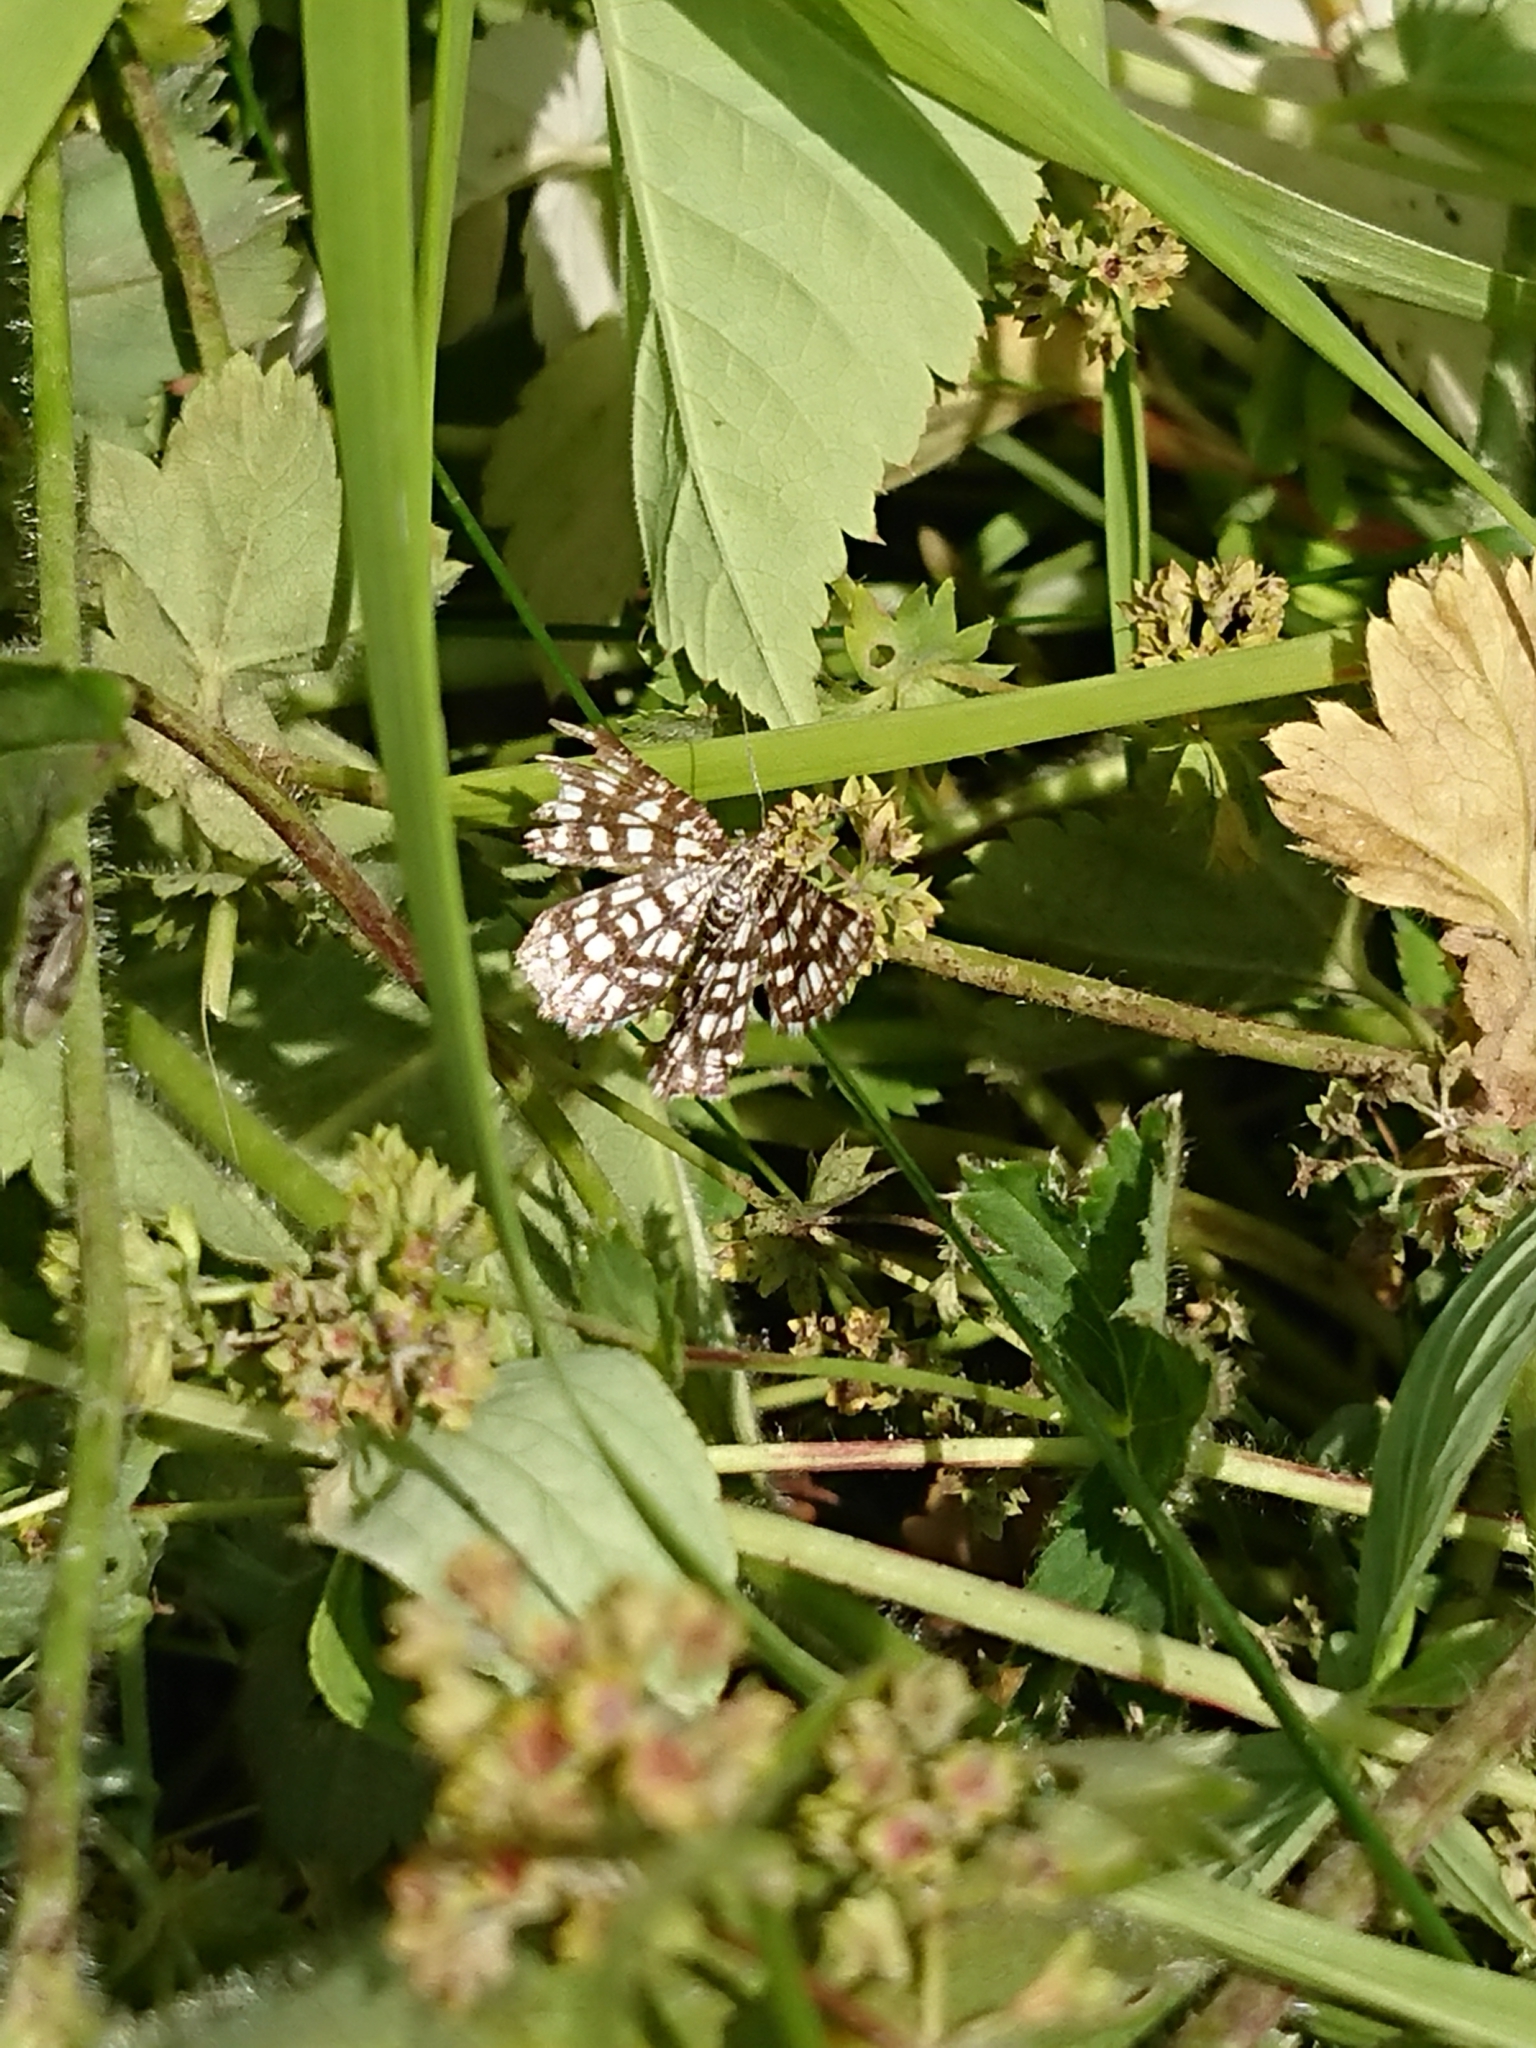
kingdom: Animalia
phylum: Arthropoda
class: Insecta
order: Lepidoptera
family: Geometridae
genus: Chiasmia
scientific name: Chiasmia clathrata
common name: Latticed heath
